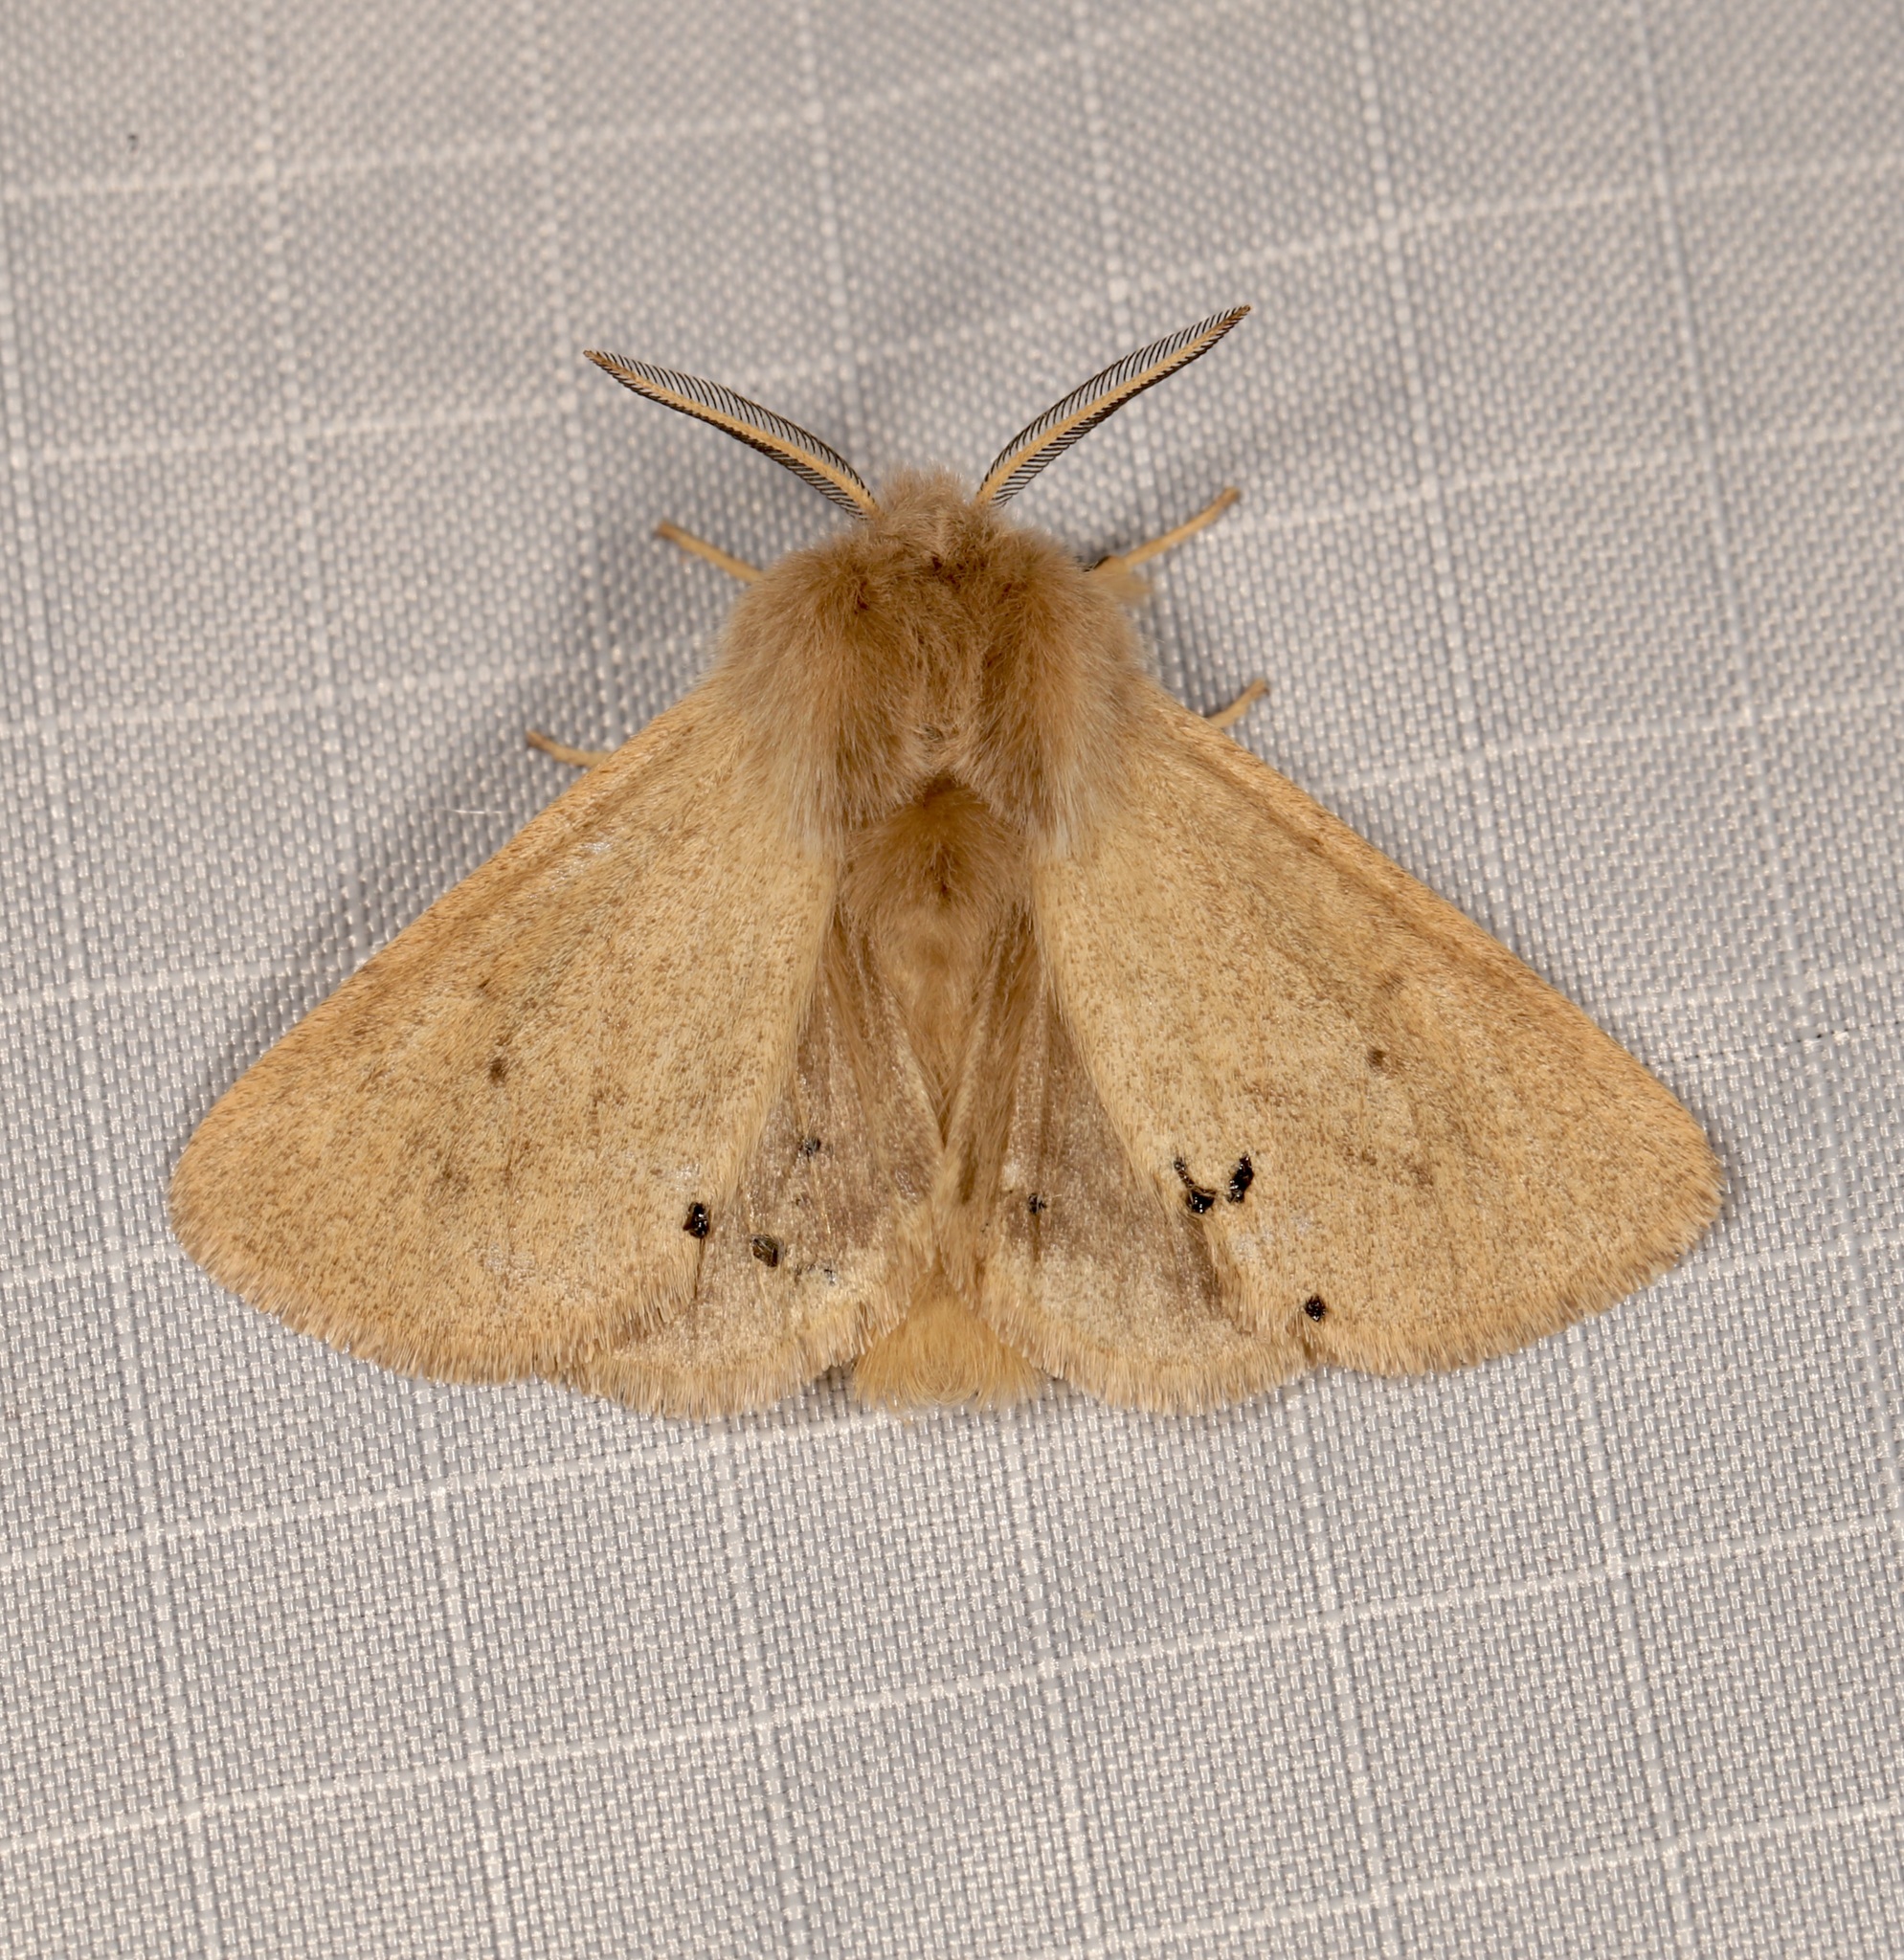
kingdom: Animalia
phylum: Arthropoda
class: Insecta
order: Lepidoptera
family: Erebidae
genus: Spilosoma
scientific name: Spilosoma vagans
